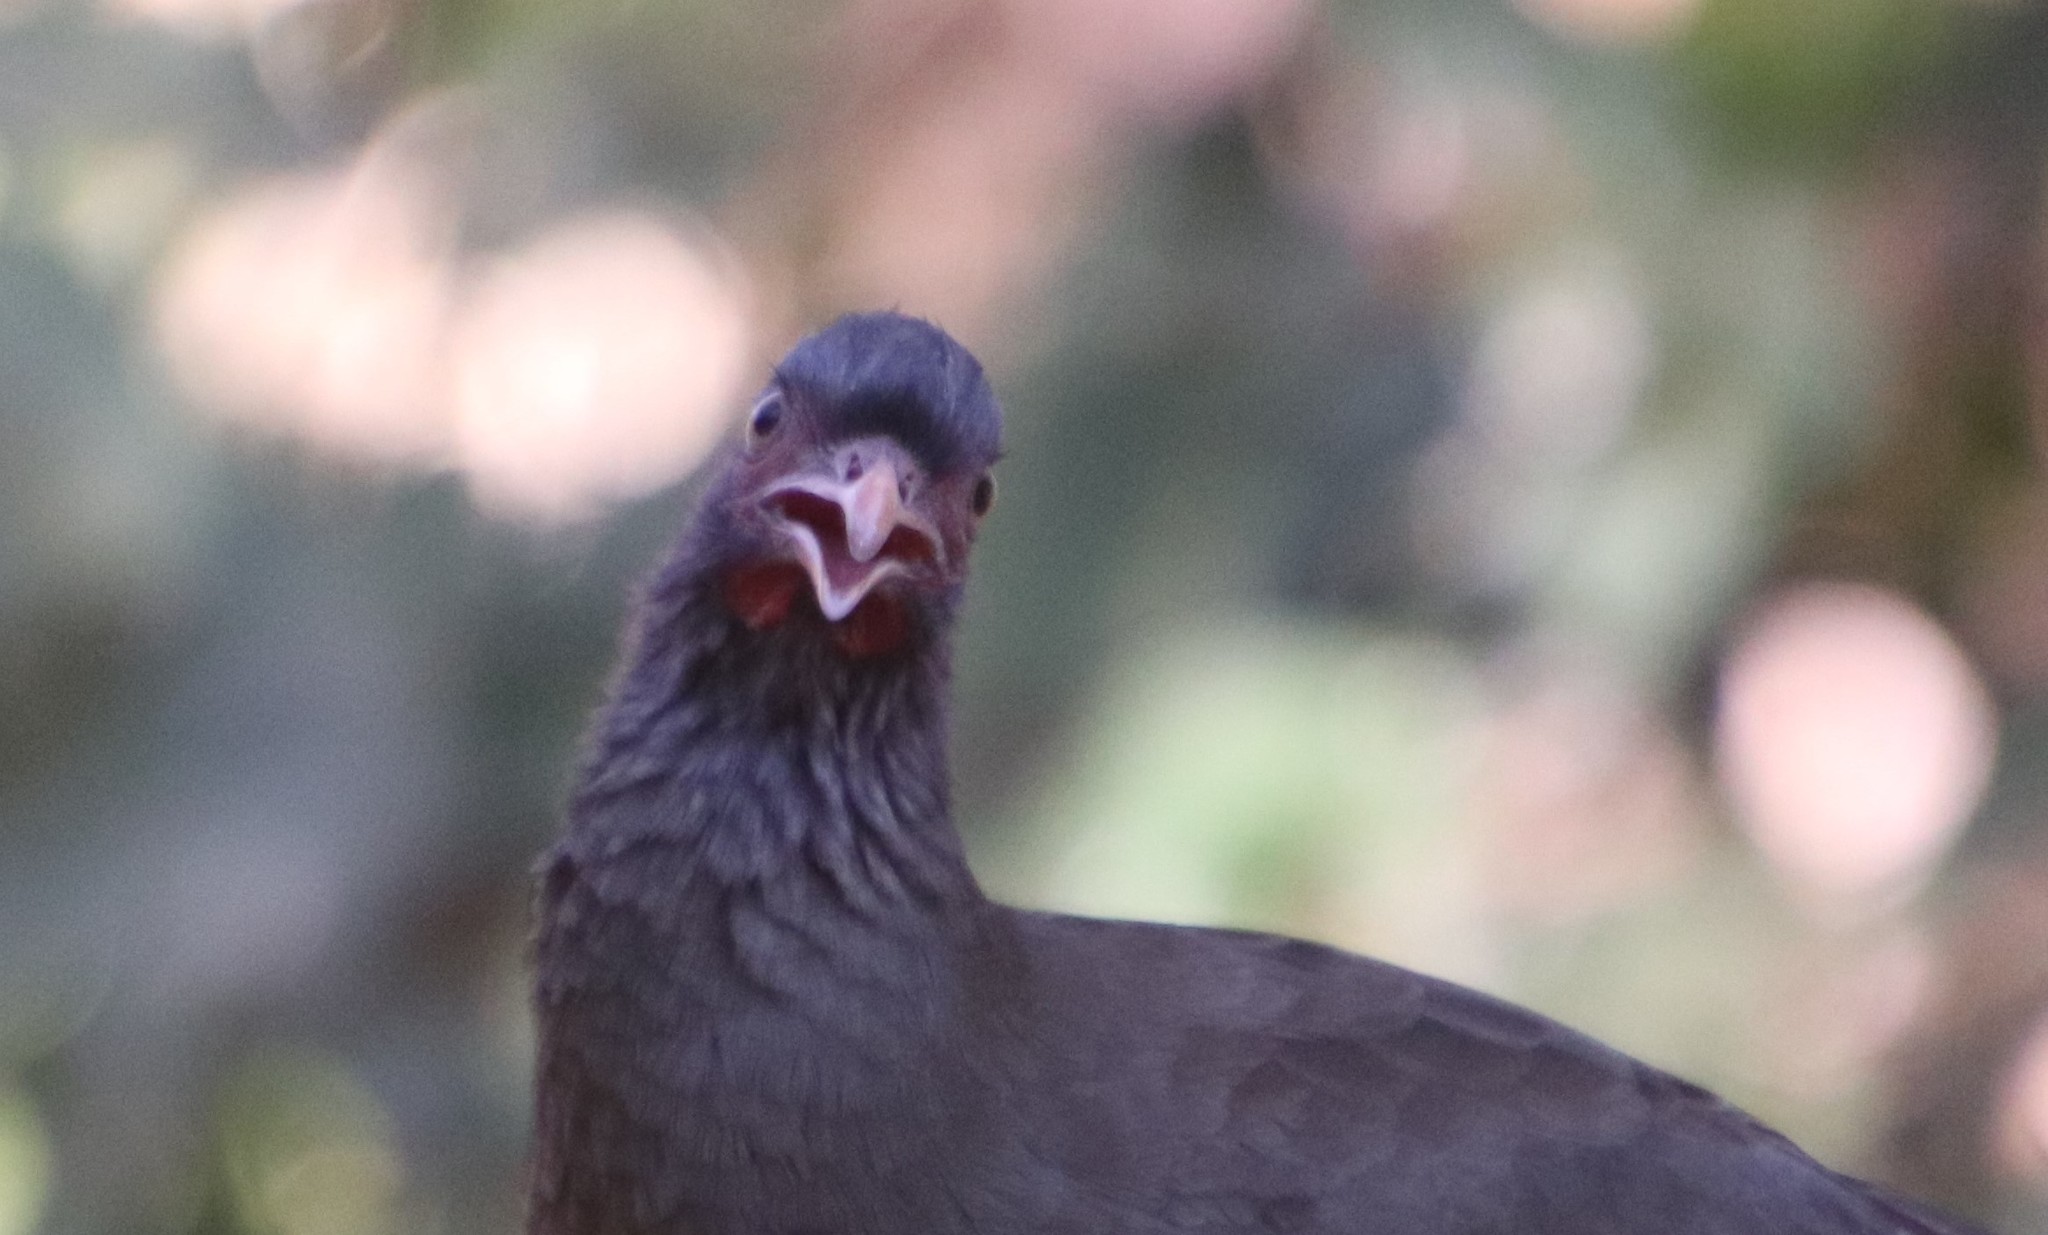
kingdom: Animalia
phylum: Chordata
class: Aves
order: Galliformes
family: Cracidae
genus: Ortalis
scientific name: Ortalis canicollis
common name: Chaco chachalaca
